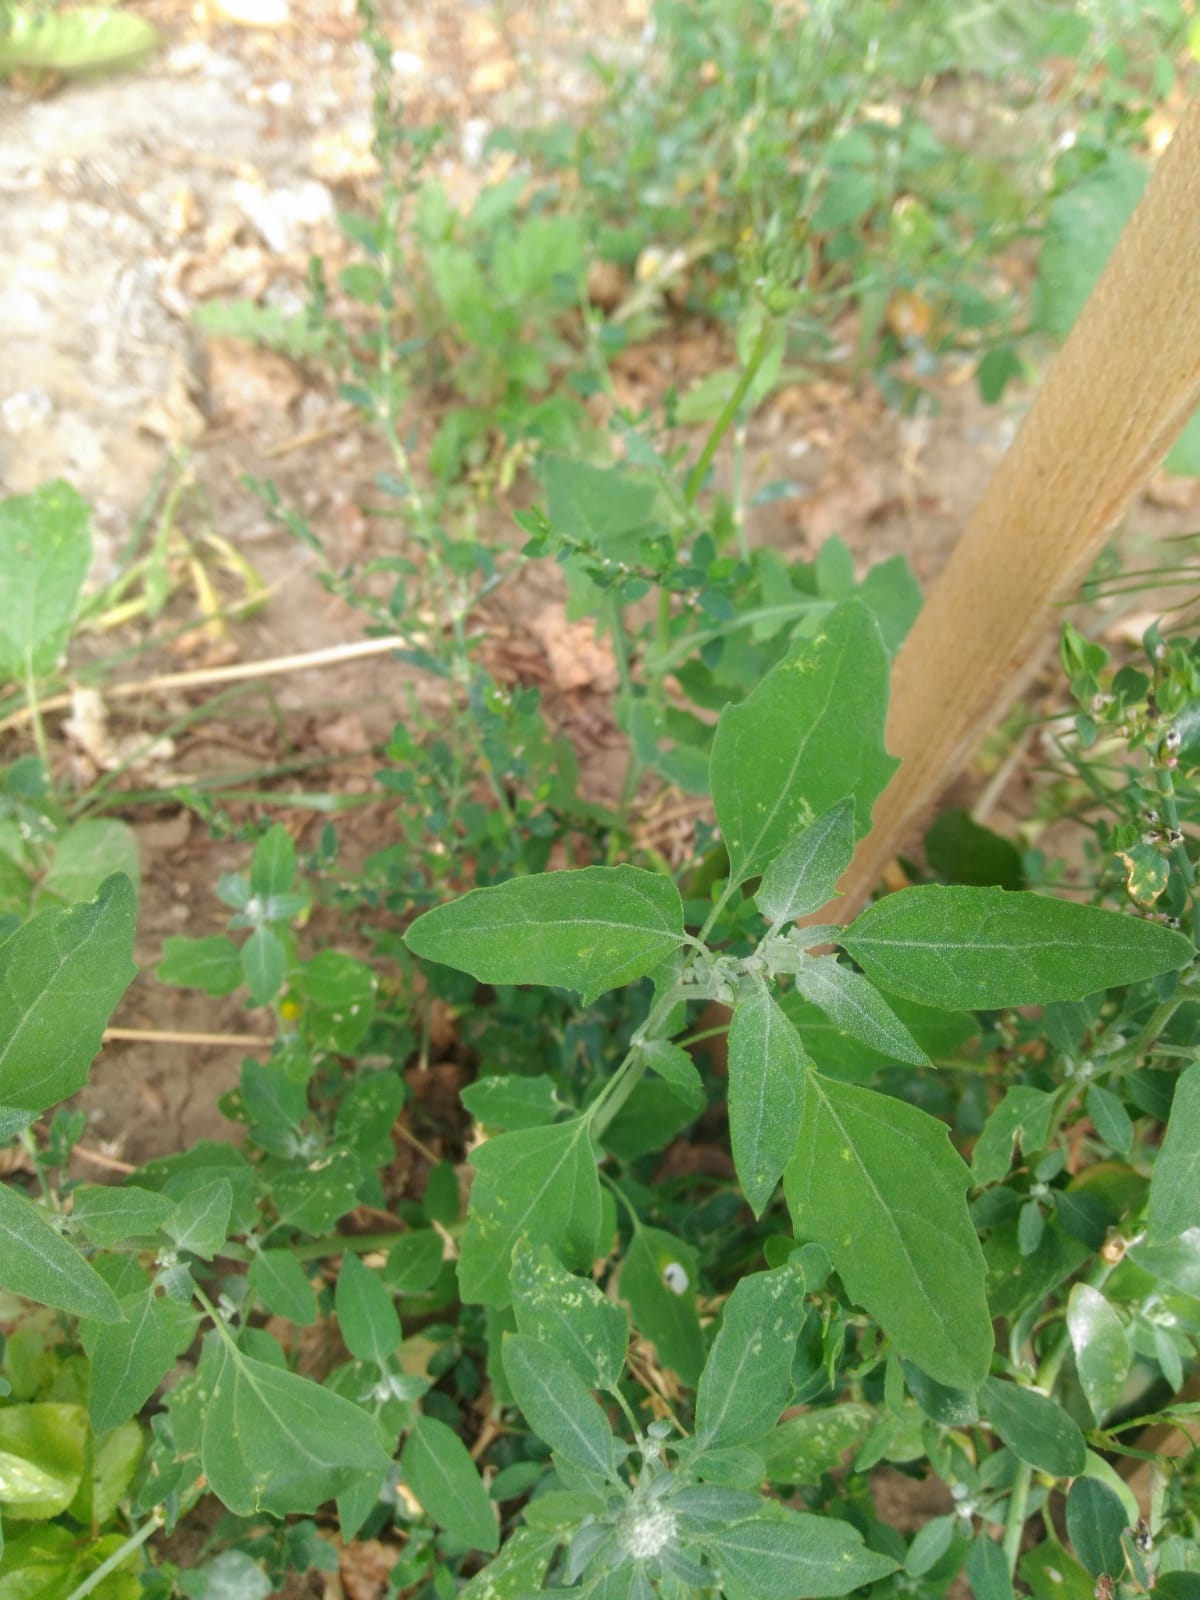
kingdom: Plantae
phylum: Tracheophyta
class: Magnoliopsida
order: Caryophyllales
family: Amaranthaceae
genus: Chenopodium
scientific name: Chenopodium album
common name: Fat-hen
